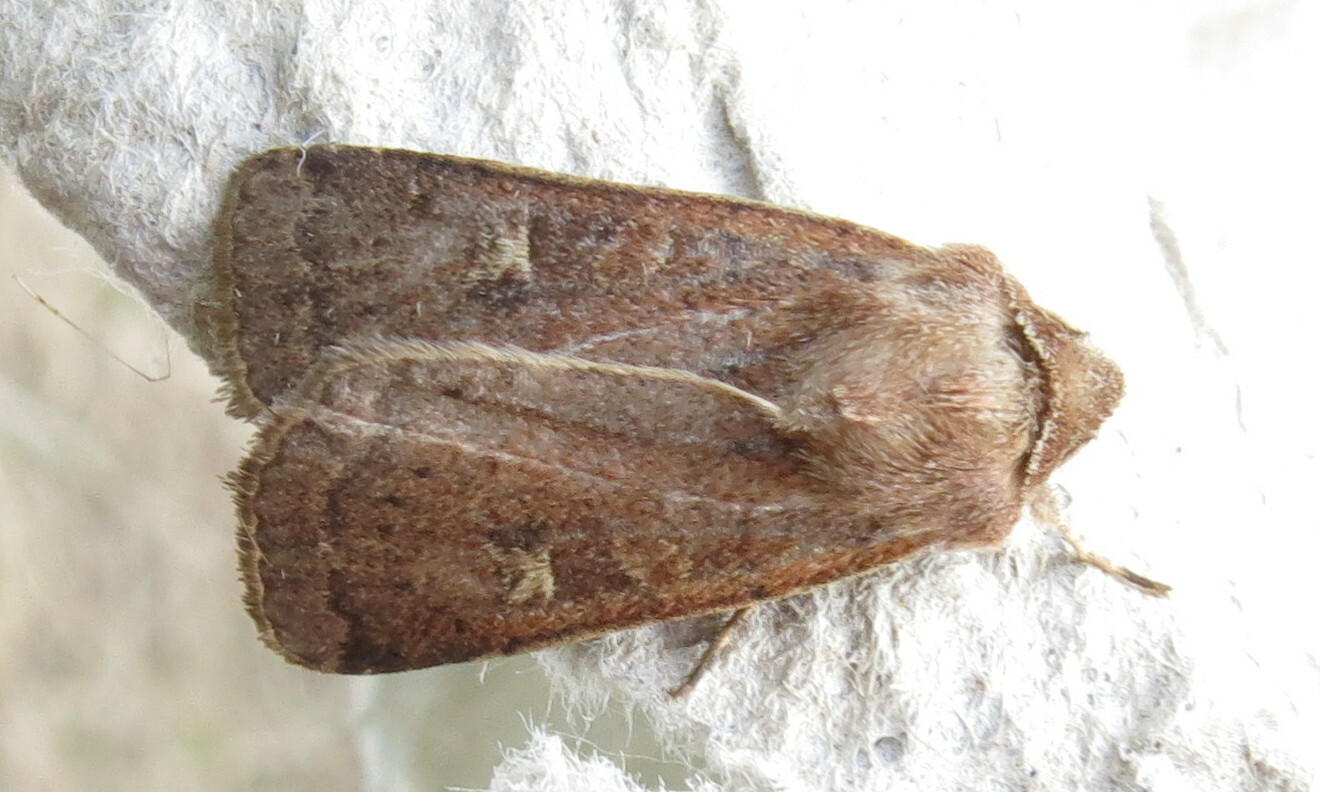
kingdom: Animalia
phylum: Arthropoda
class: Insecta
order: Lepidoptera
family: Noctuidae
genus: Xestia
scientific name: Xestia xanthographa
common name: Square-spot rustic
